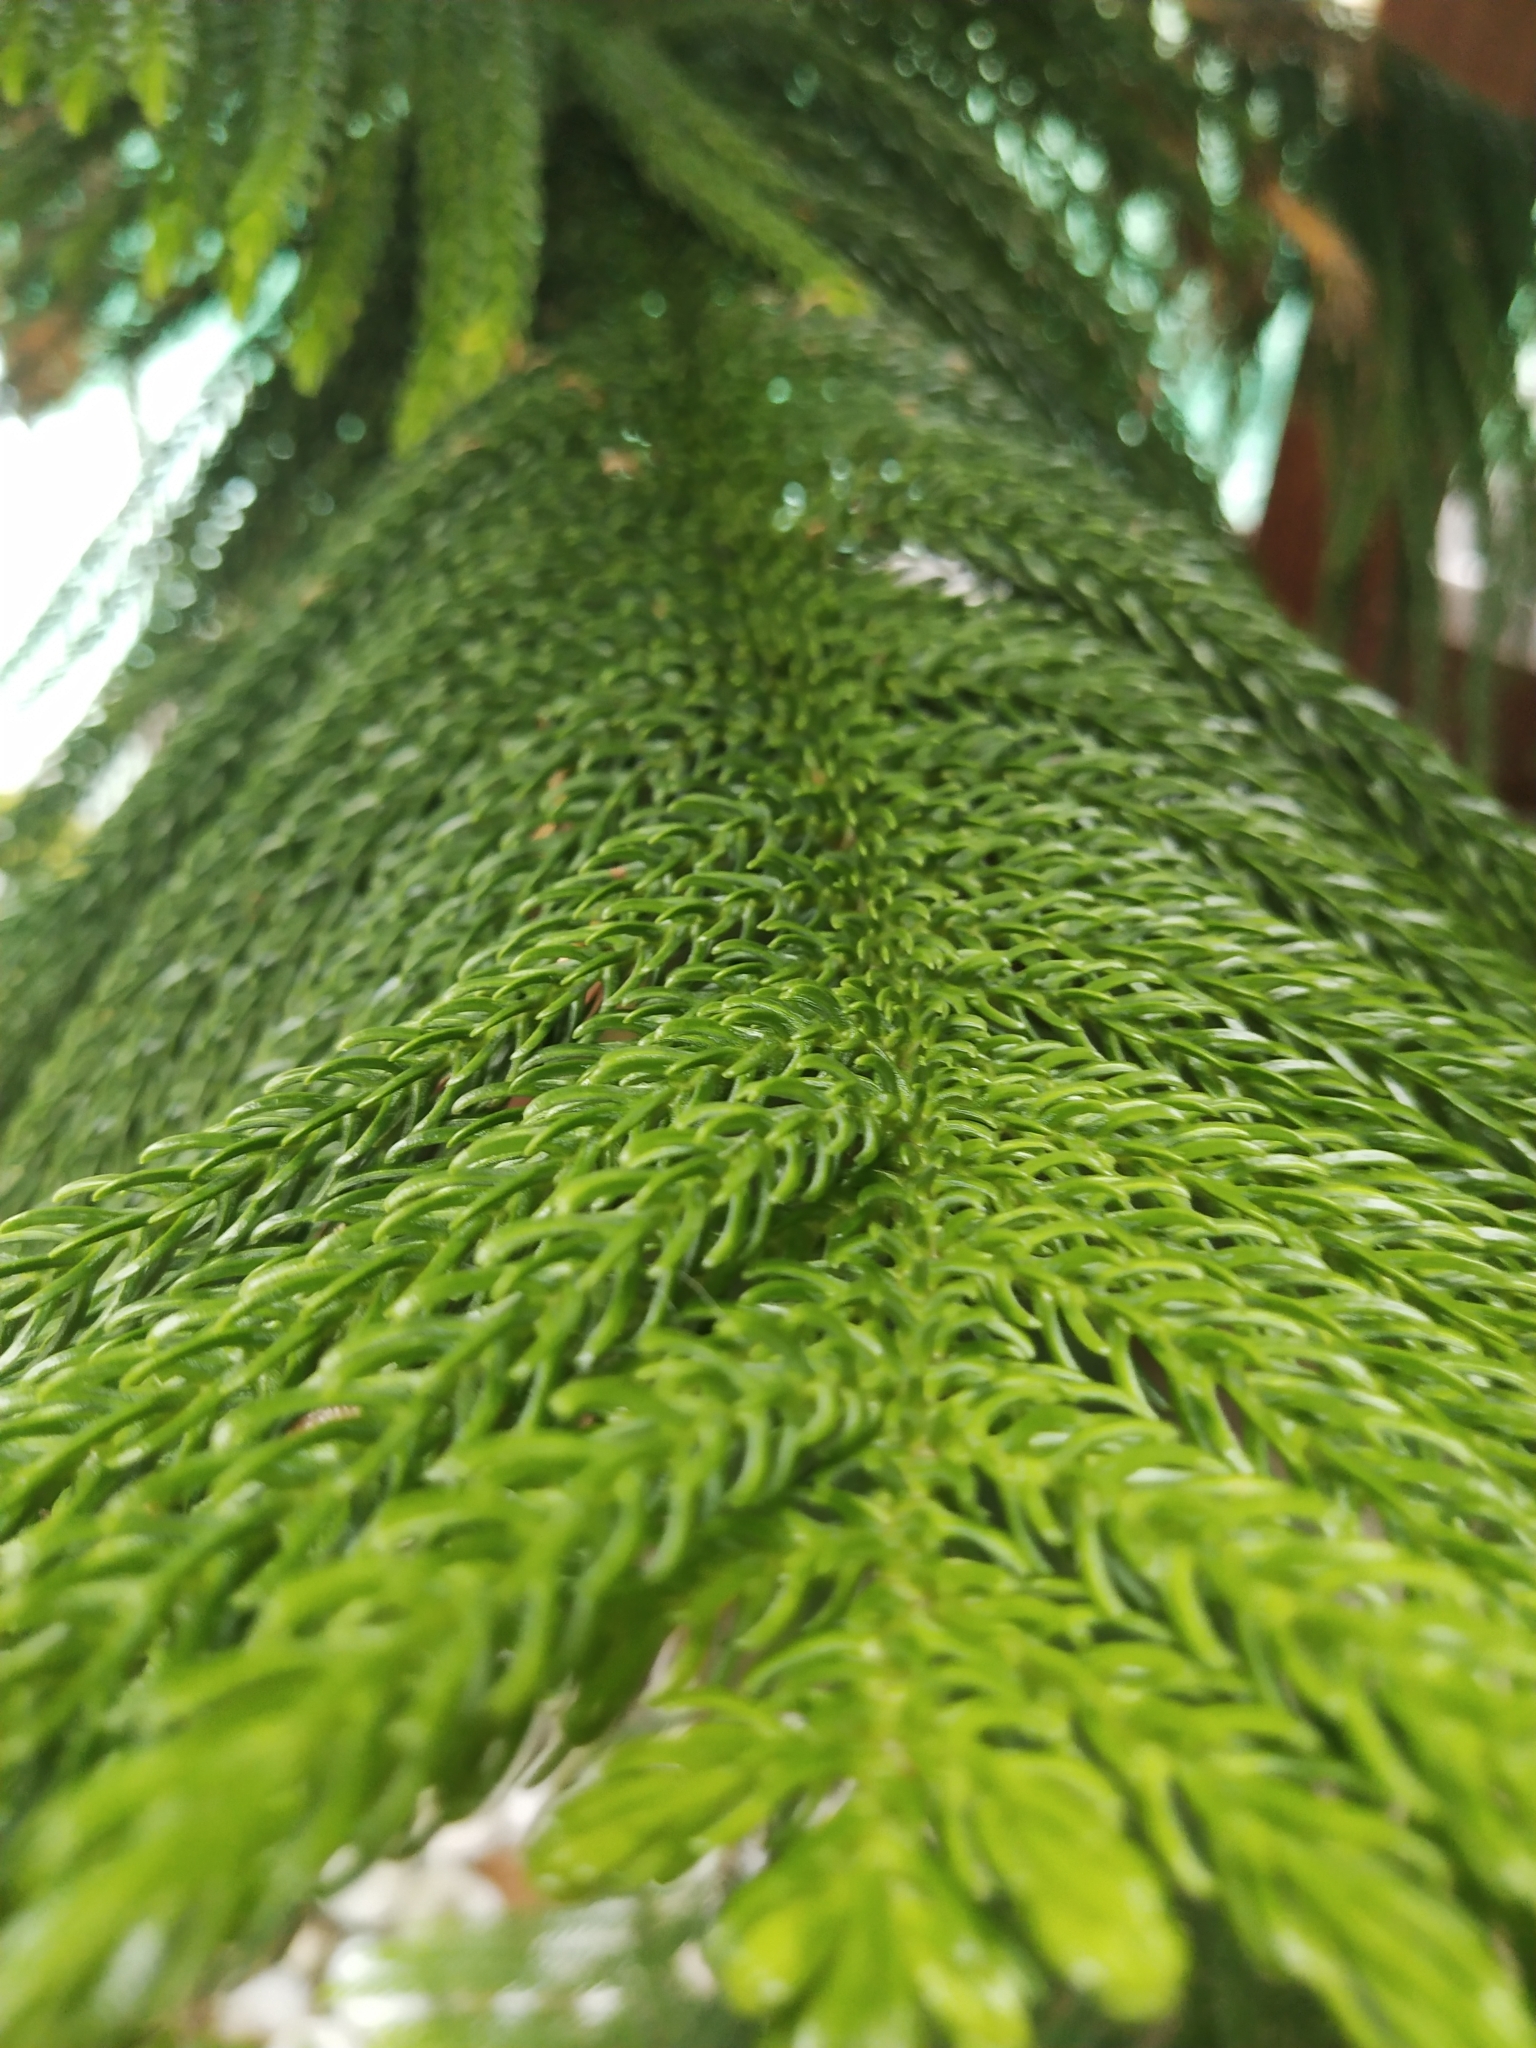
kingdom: Plantae
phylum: Tracheophyta
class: Pinopsida
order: Pinales
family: Araucariaceae
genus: Araucaria
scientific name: Araucaria heterophylla
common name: Norfolk island pine
